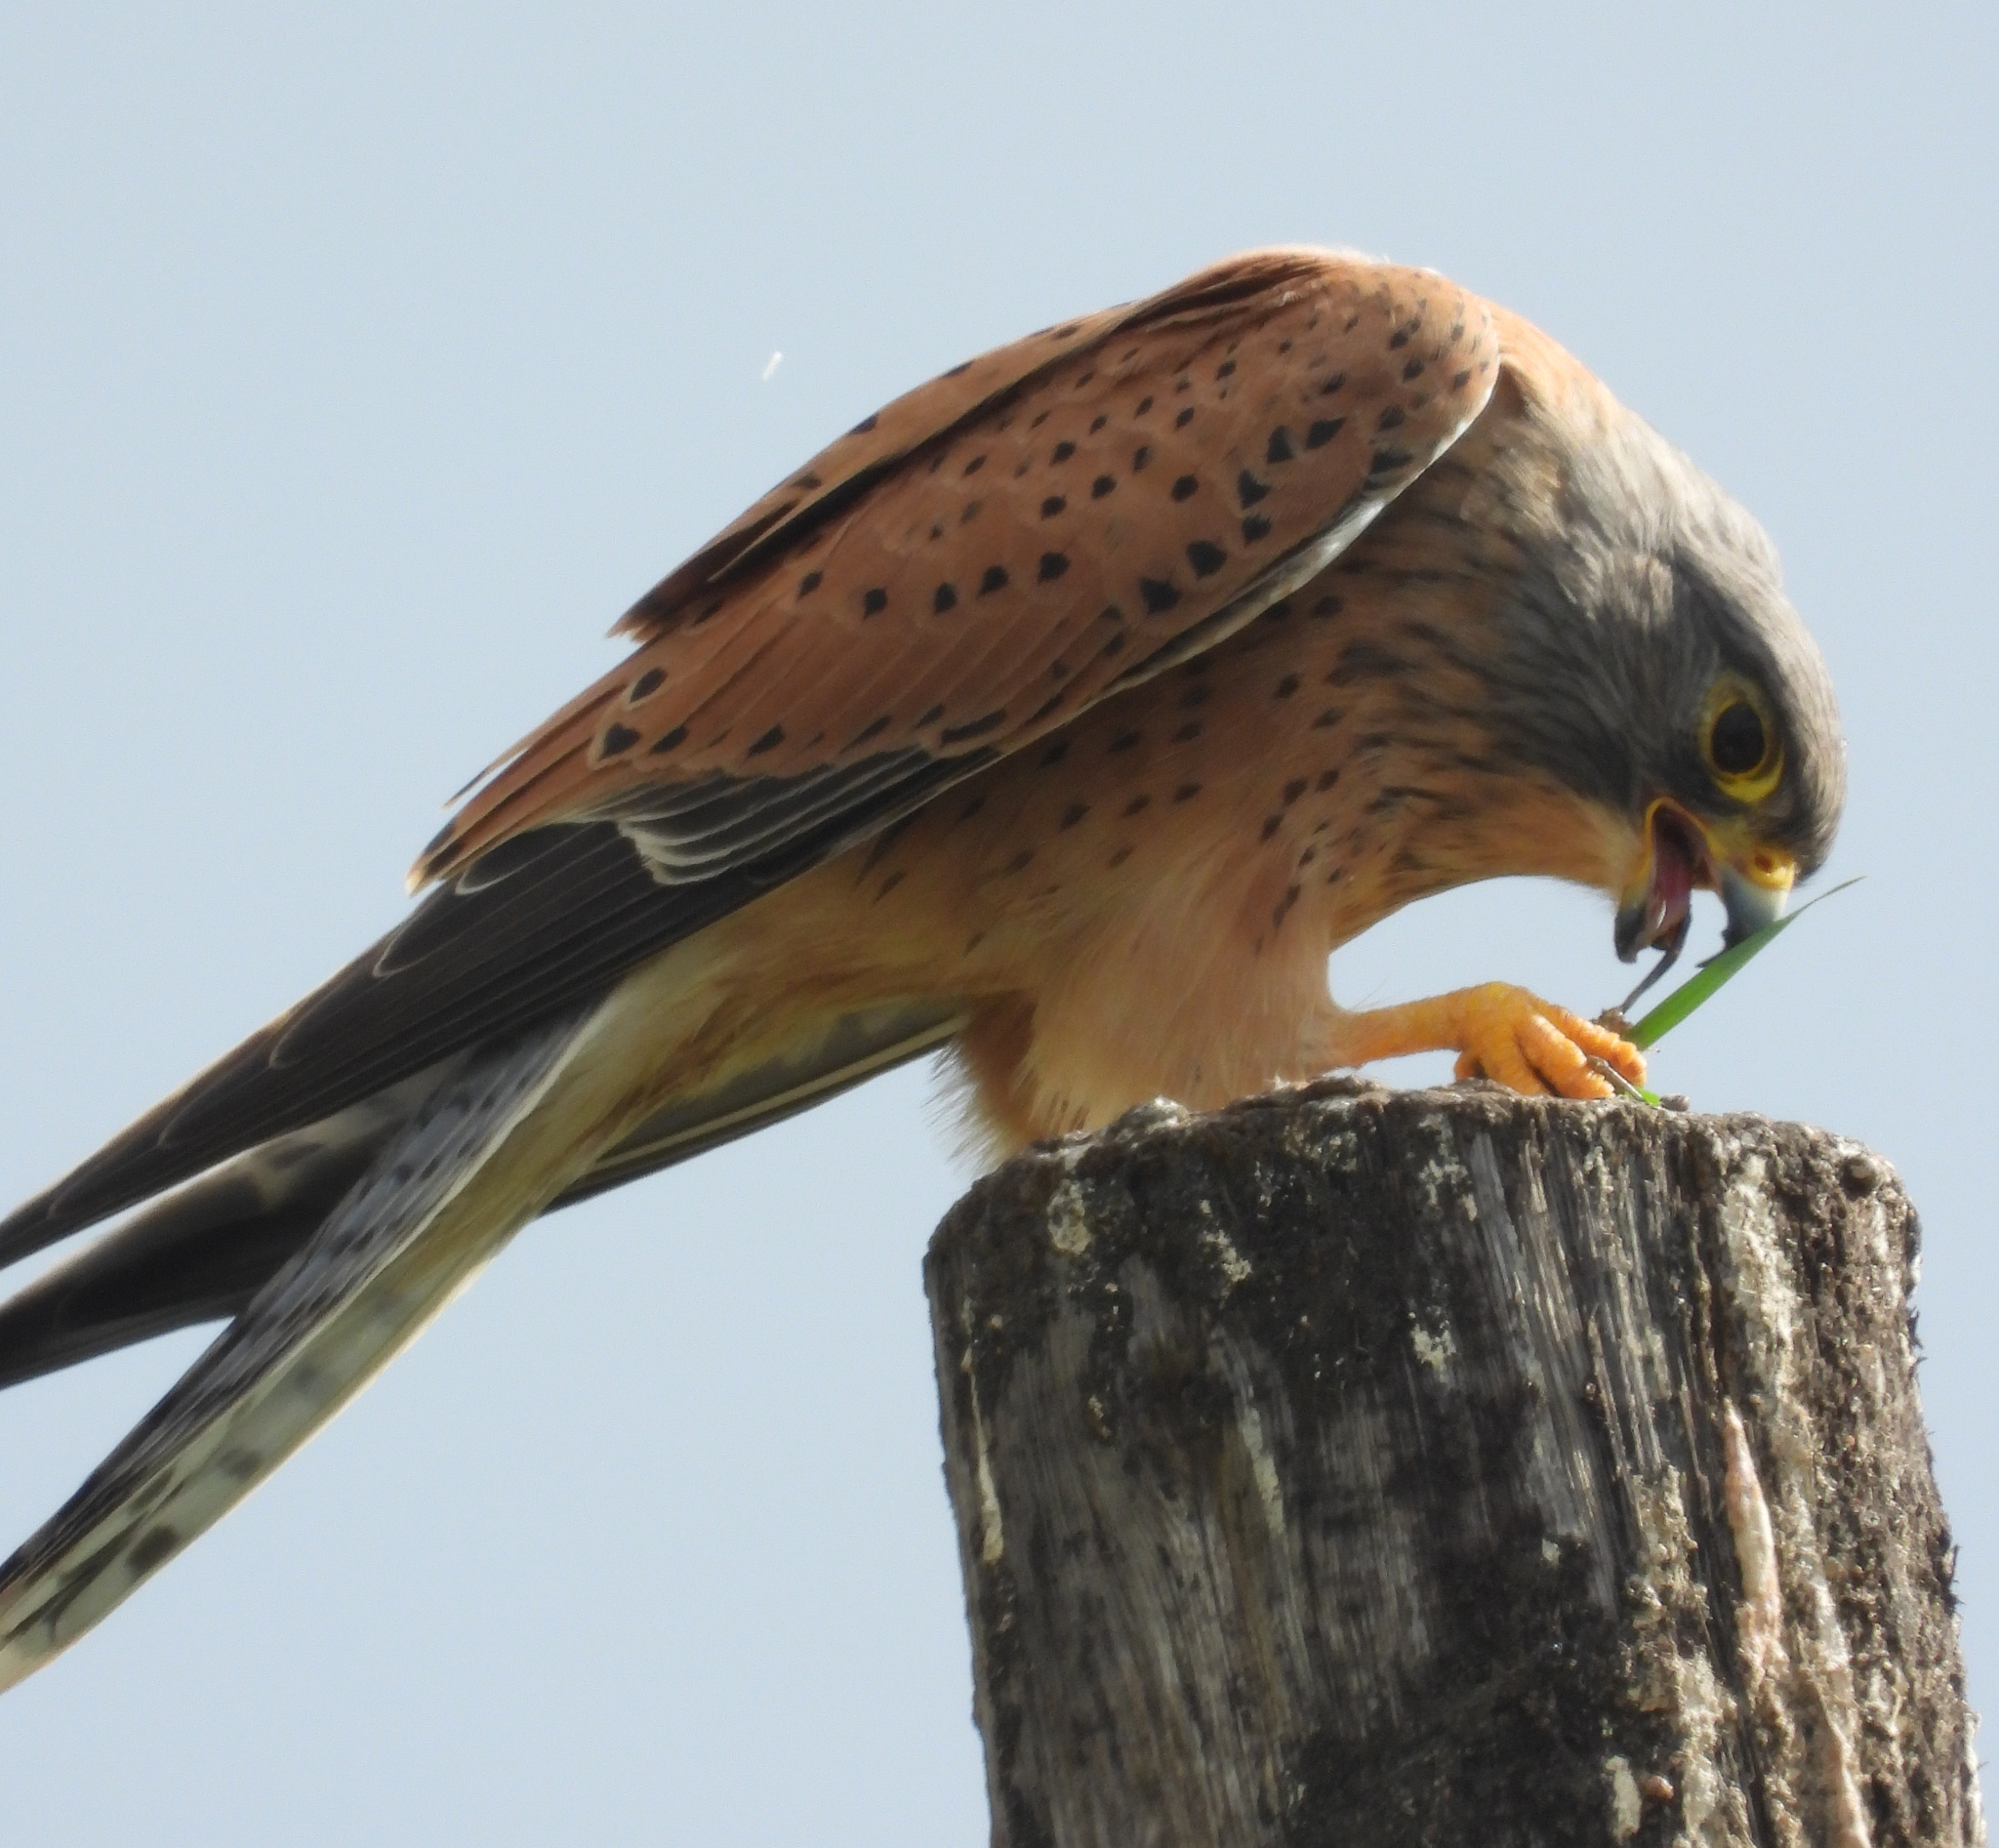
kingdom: Animalia
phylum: Chordata
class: Aves
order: Falconiformes
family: Falconidae
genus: Falco
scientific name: Falco rupicolus
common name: Rock kestrel
